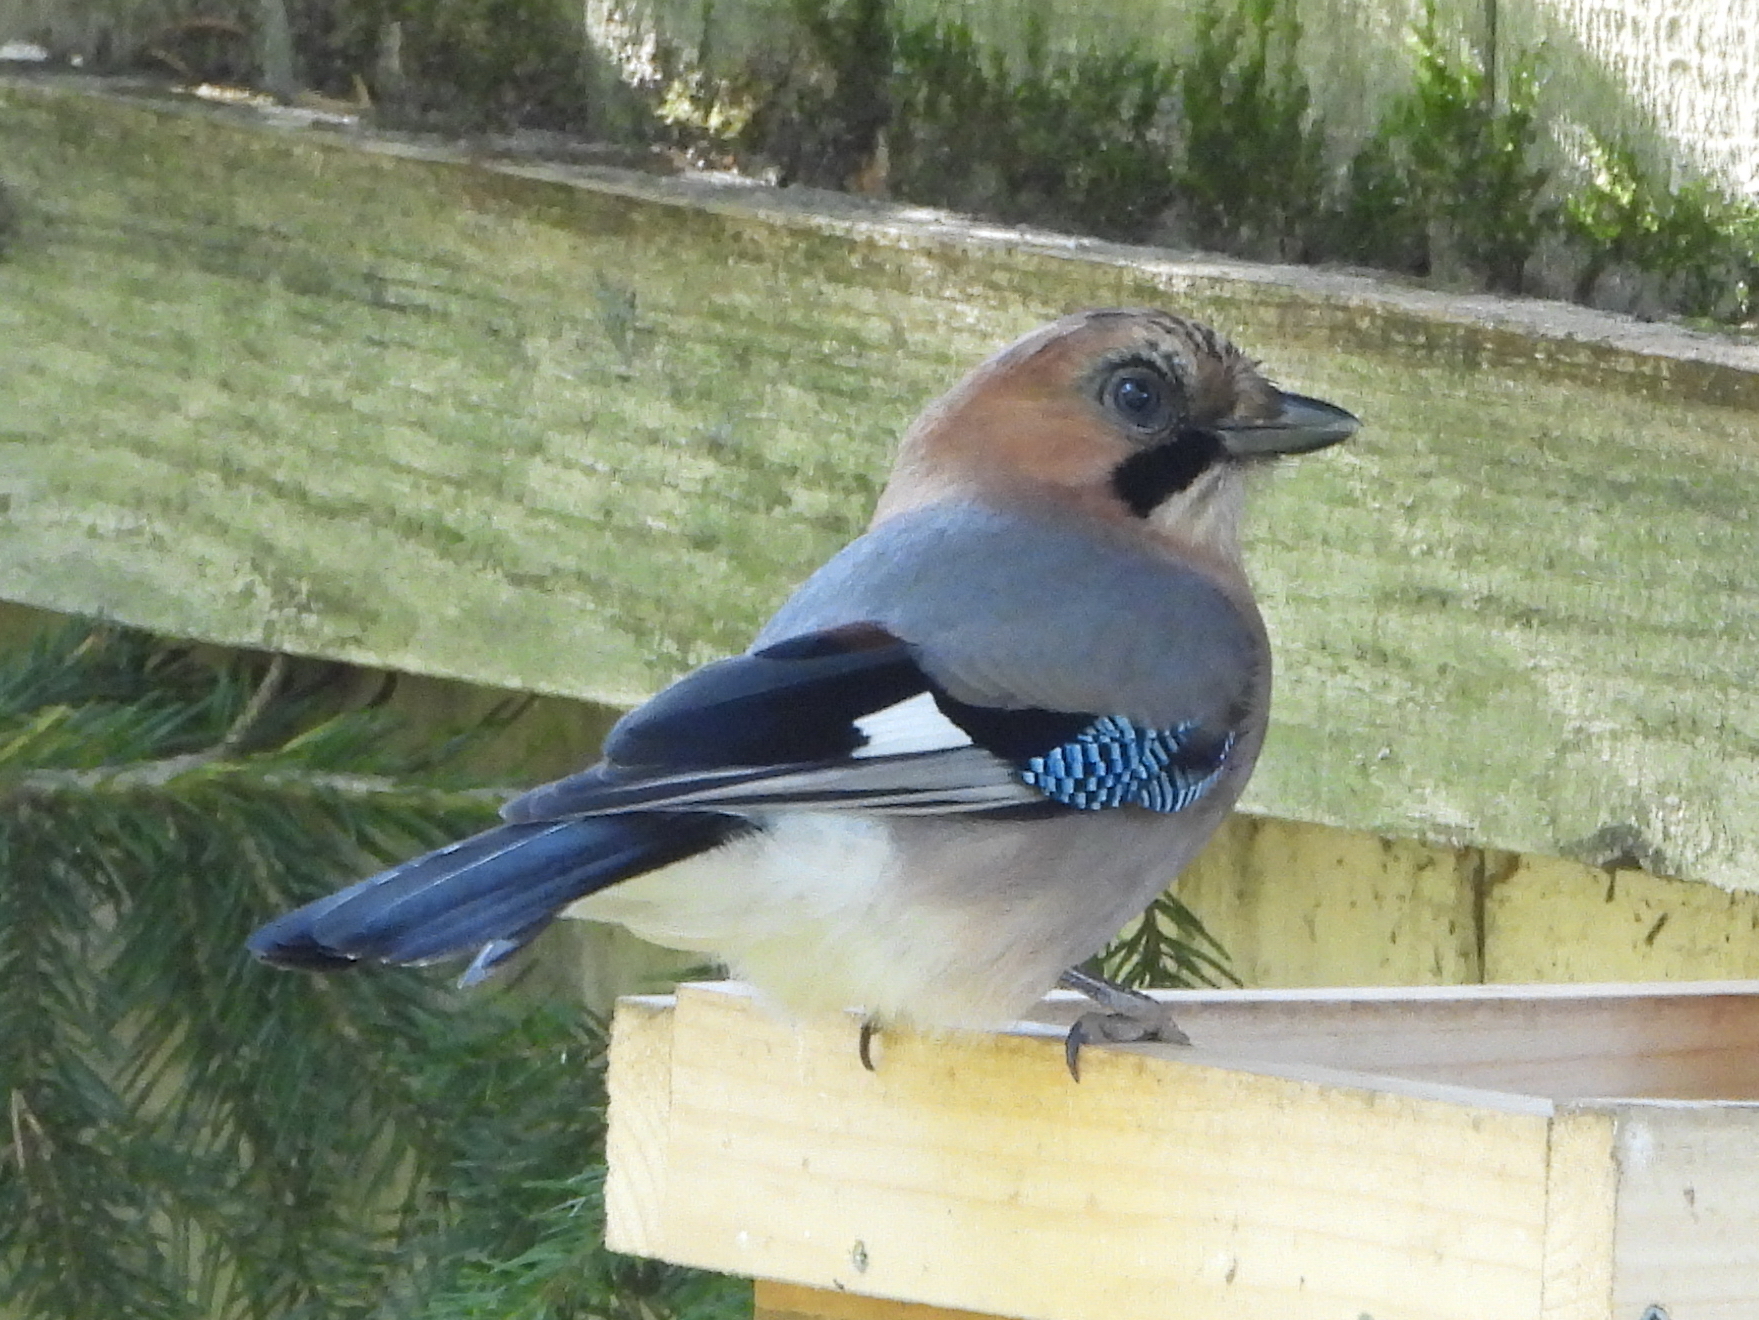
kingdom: Animalia
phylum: Chordata
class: Aves
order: Passeriformes
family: Corvidae
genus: Garrulus
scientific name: Garrulus glandarius
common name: Eurasian jay
